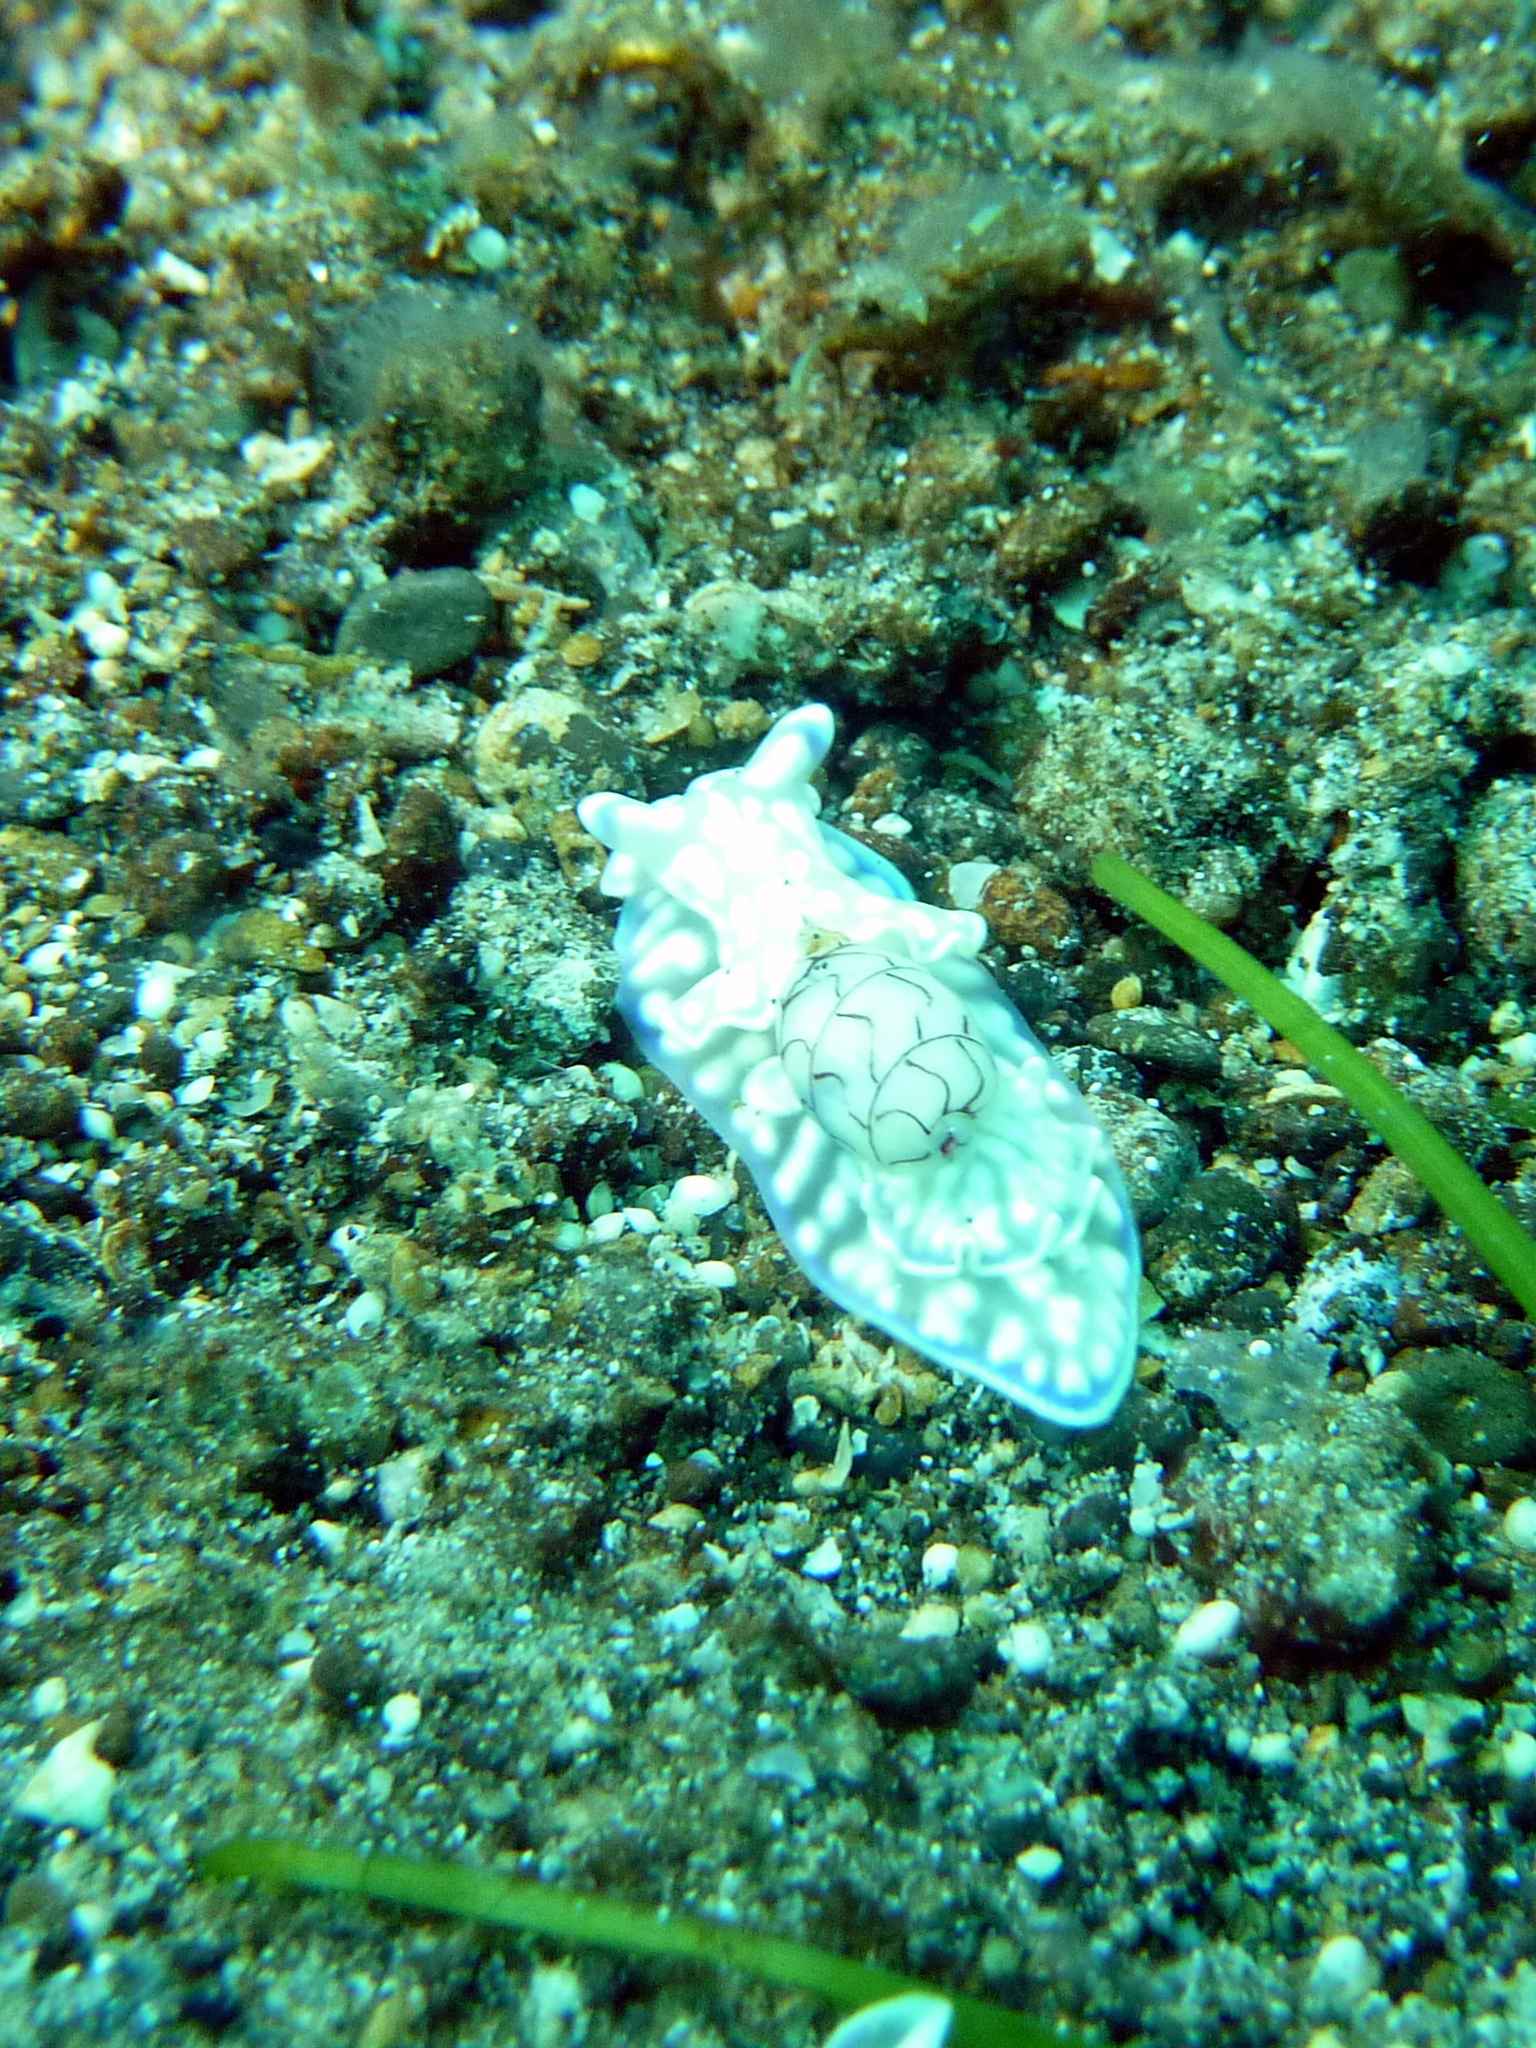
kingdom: Animalia
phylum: Mollusca
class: Gastropoda
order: Cephalaspidea
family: Aplustridae
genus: Micromelo
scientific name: Micromelo guamensis
